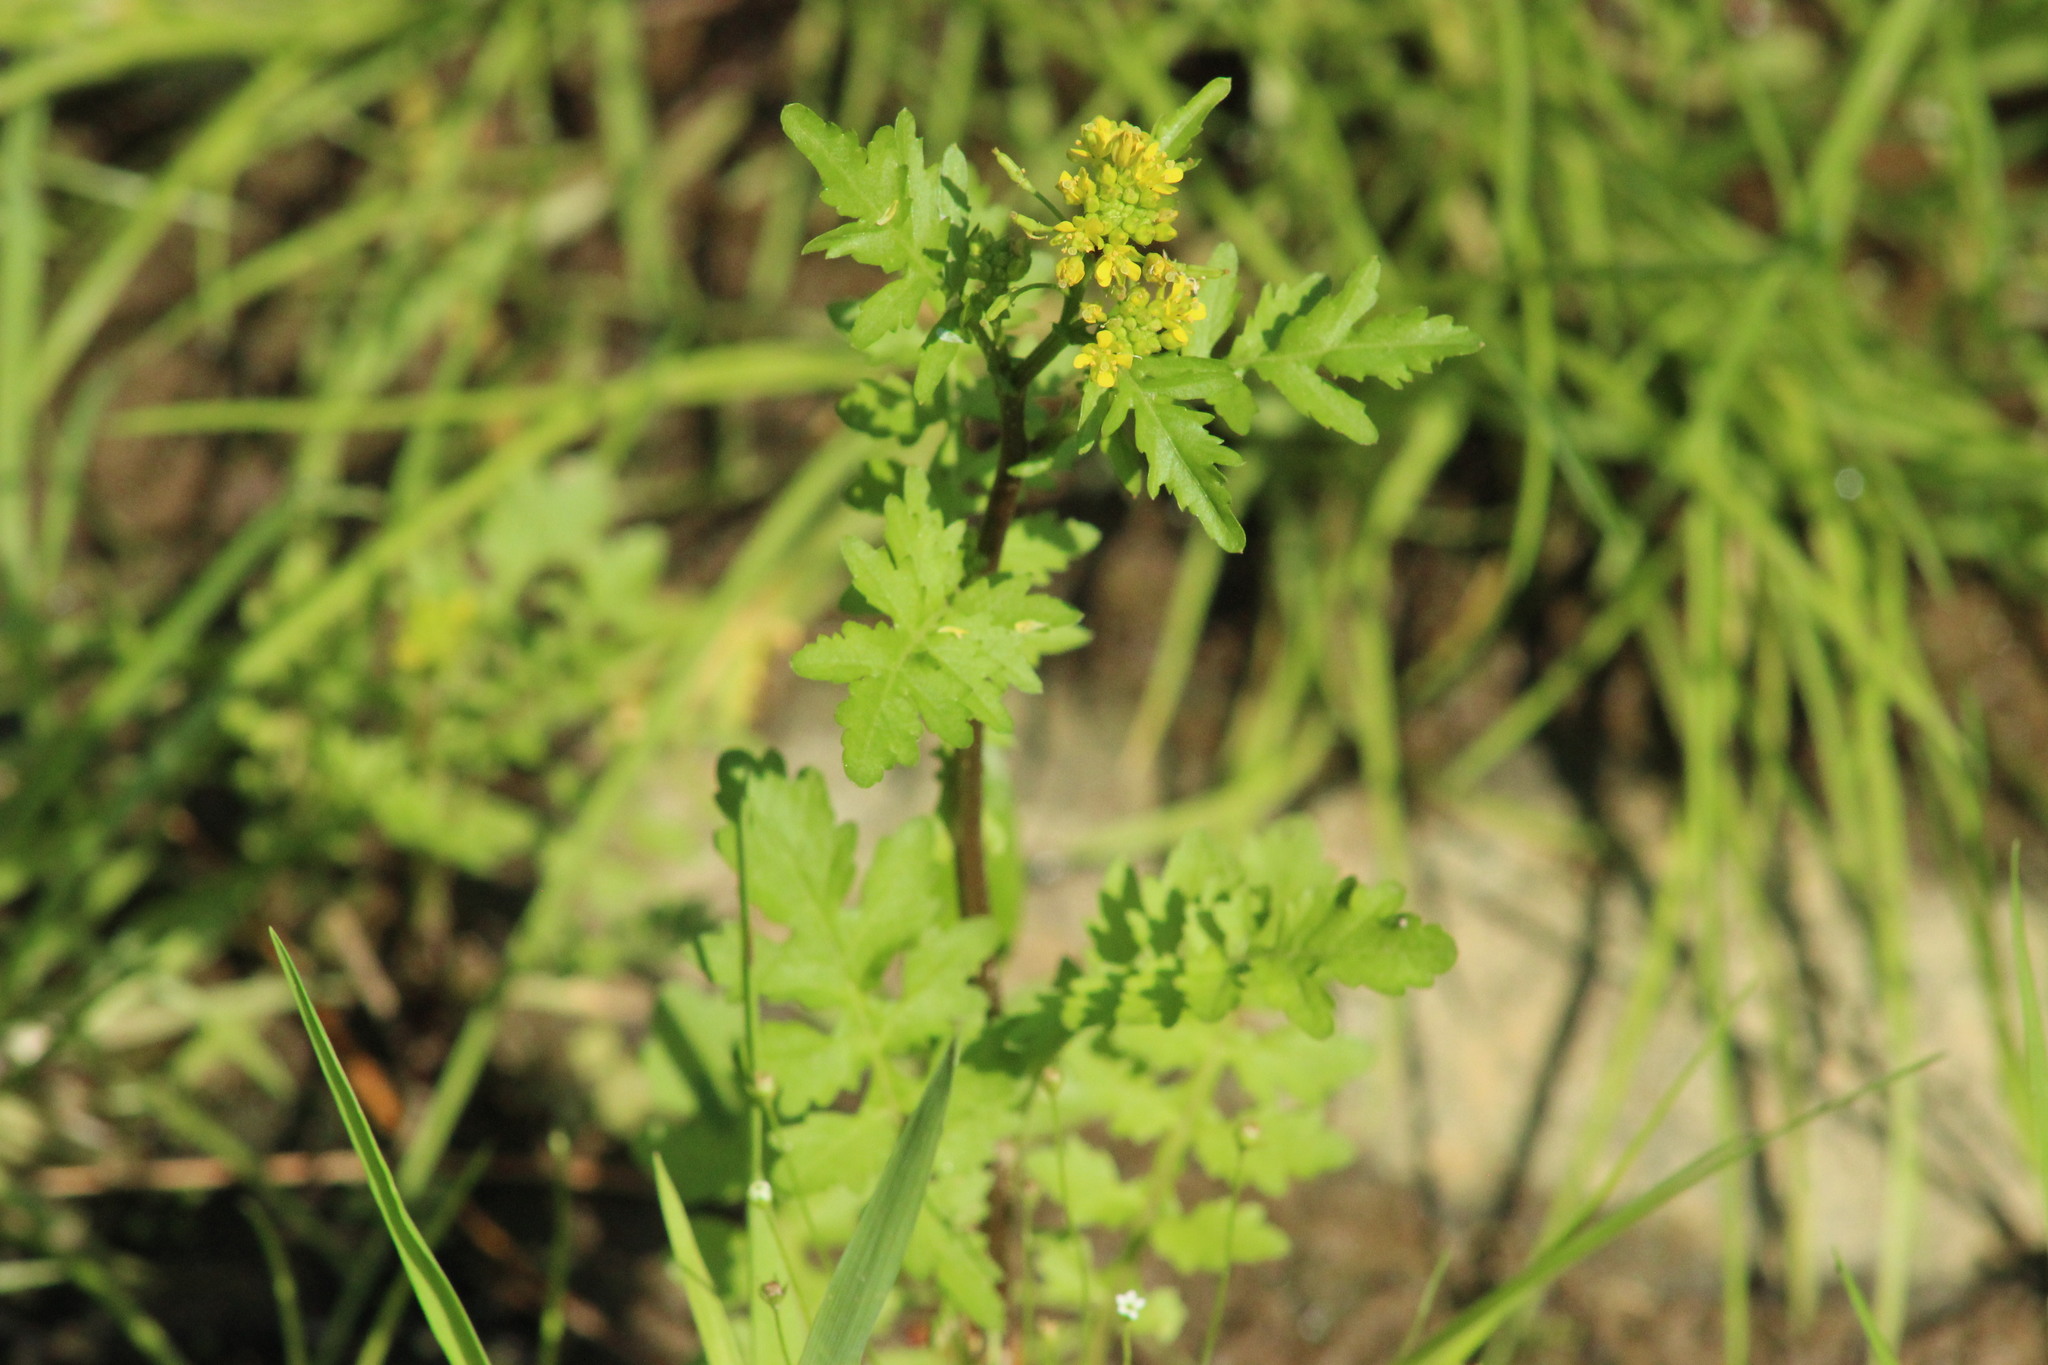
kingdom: Plantae
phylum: Tracheophyta
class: Magnoliopsida
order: Brassicales
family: Brassicaceae
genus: Rorippa
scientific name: Rorippa palustris
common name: Marsh yellow-cress
